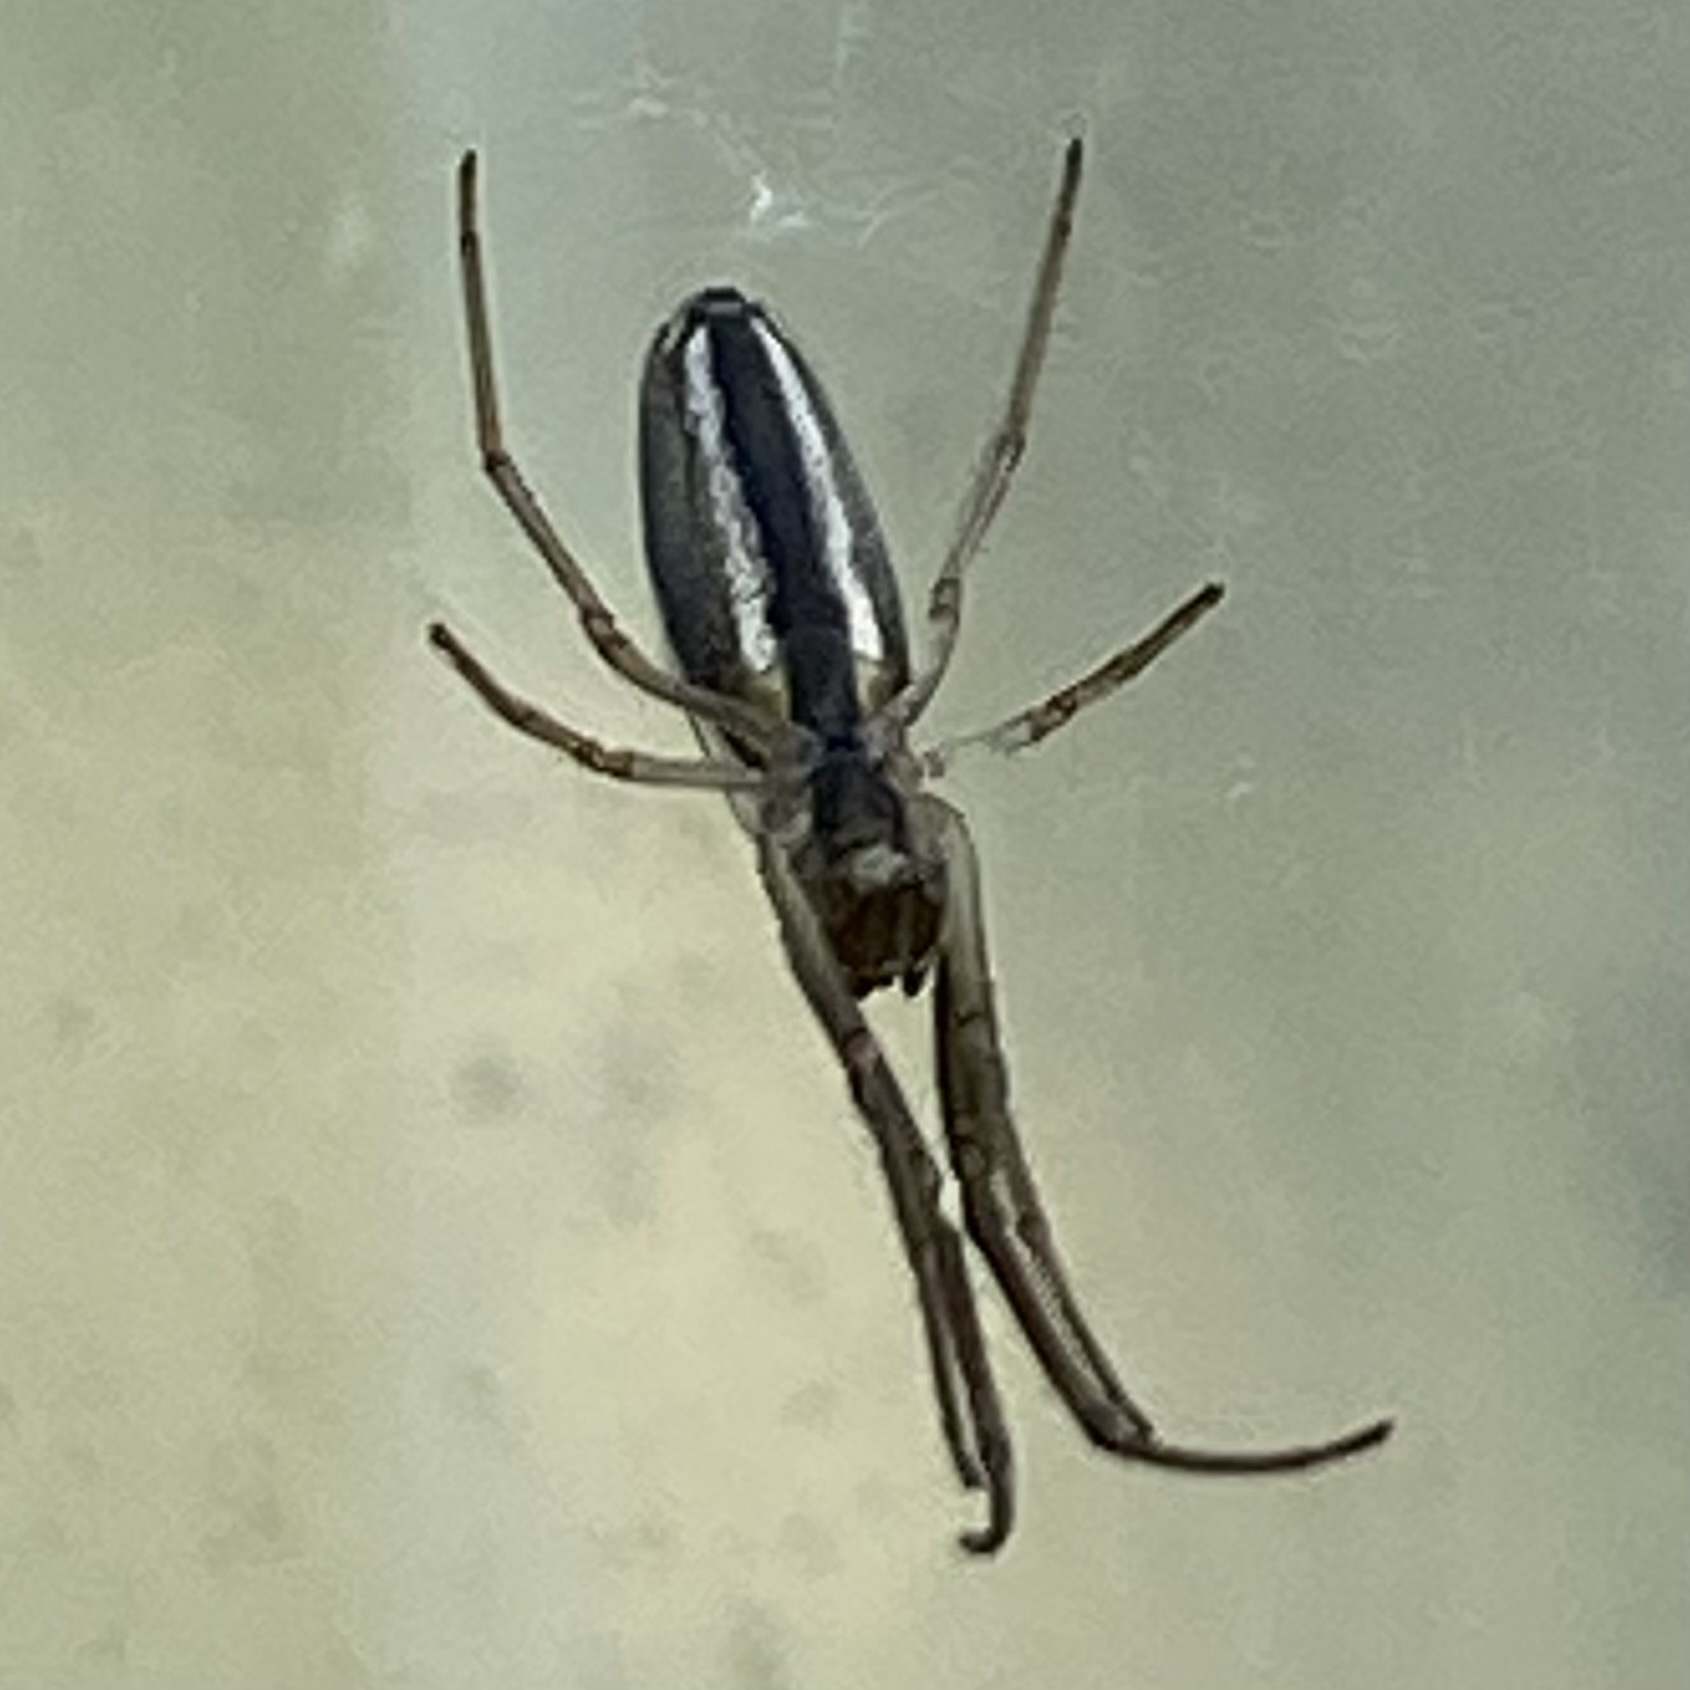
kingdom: Animalia
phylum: Arthropoda
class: Arachnida
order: Araneae
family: Tetragnathidae
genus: Tetragnatha
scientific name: Tetragnatha
